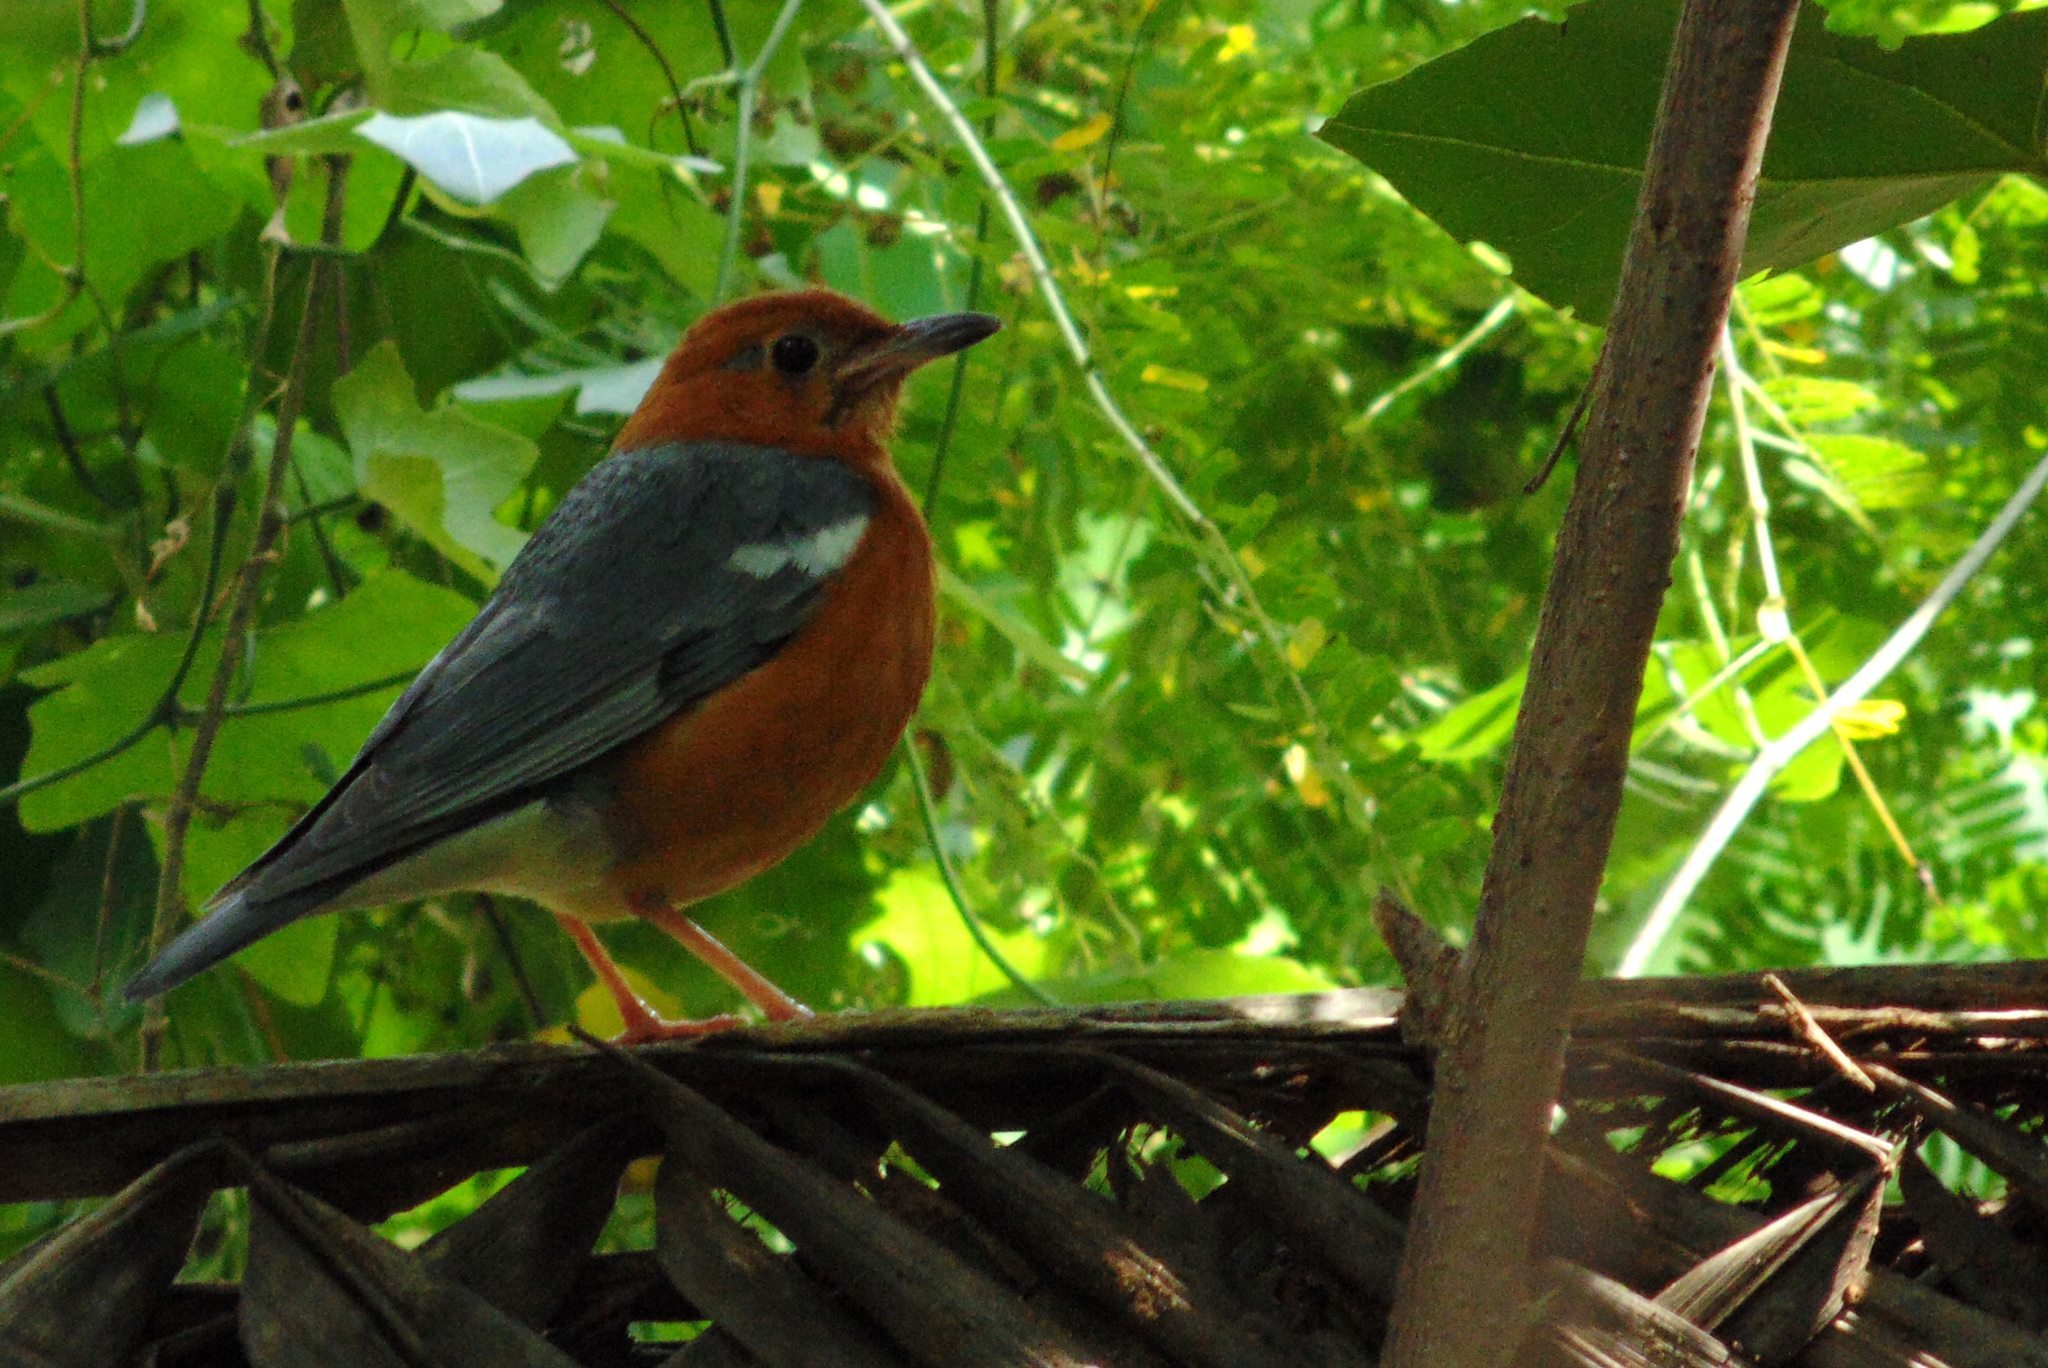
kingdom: Animalia
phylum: Chordata
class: Aves
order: Passeriformes
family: Turdidae
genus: Geokichla
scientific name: Geokichla citrina
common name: Orange-headed thrush
